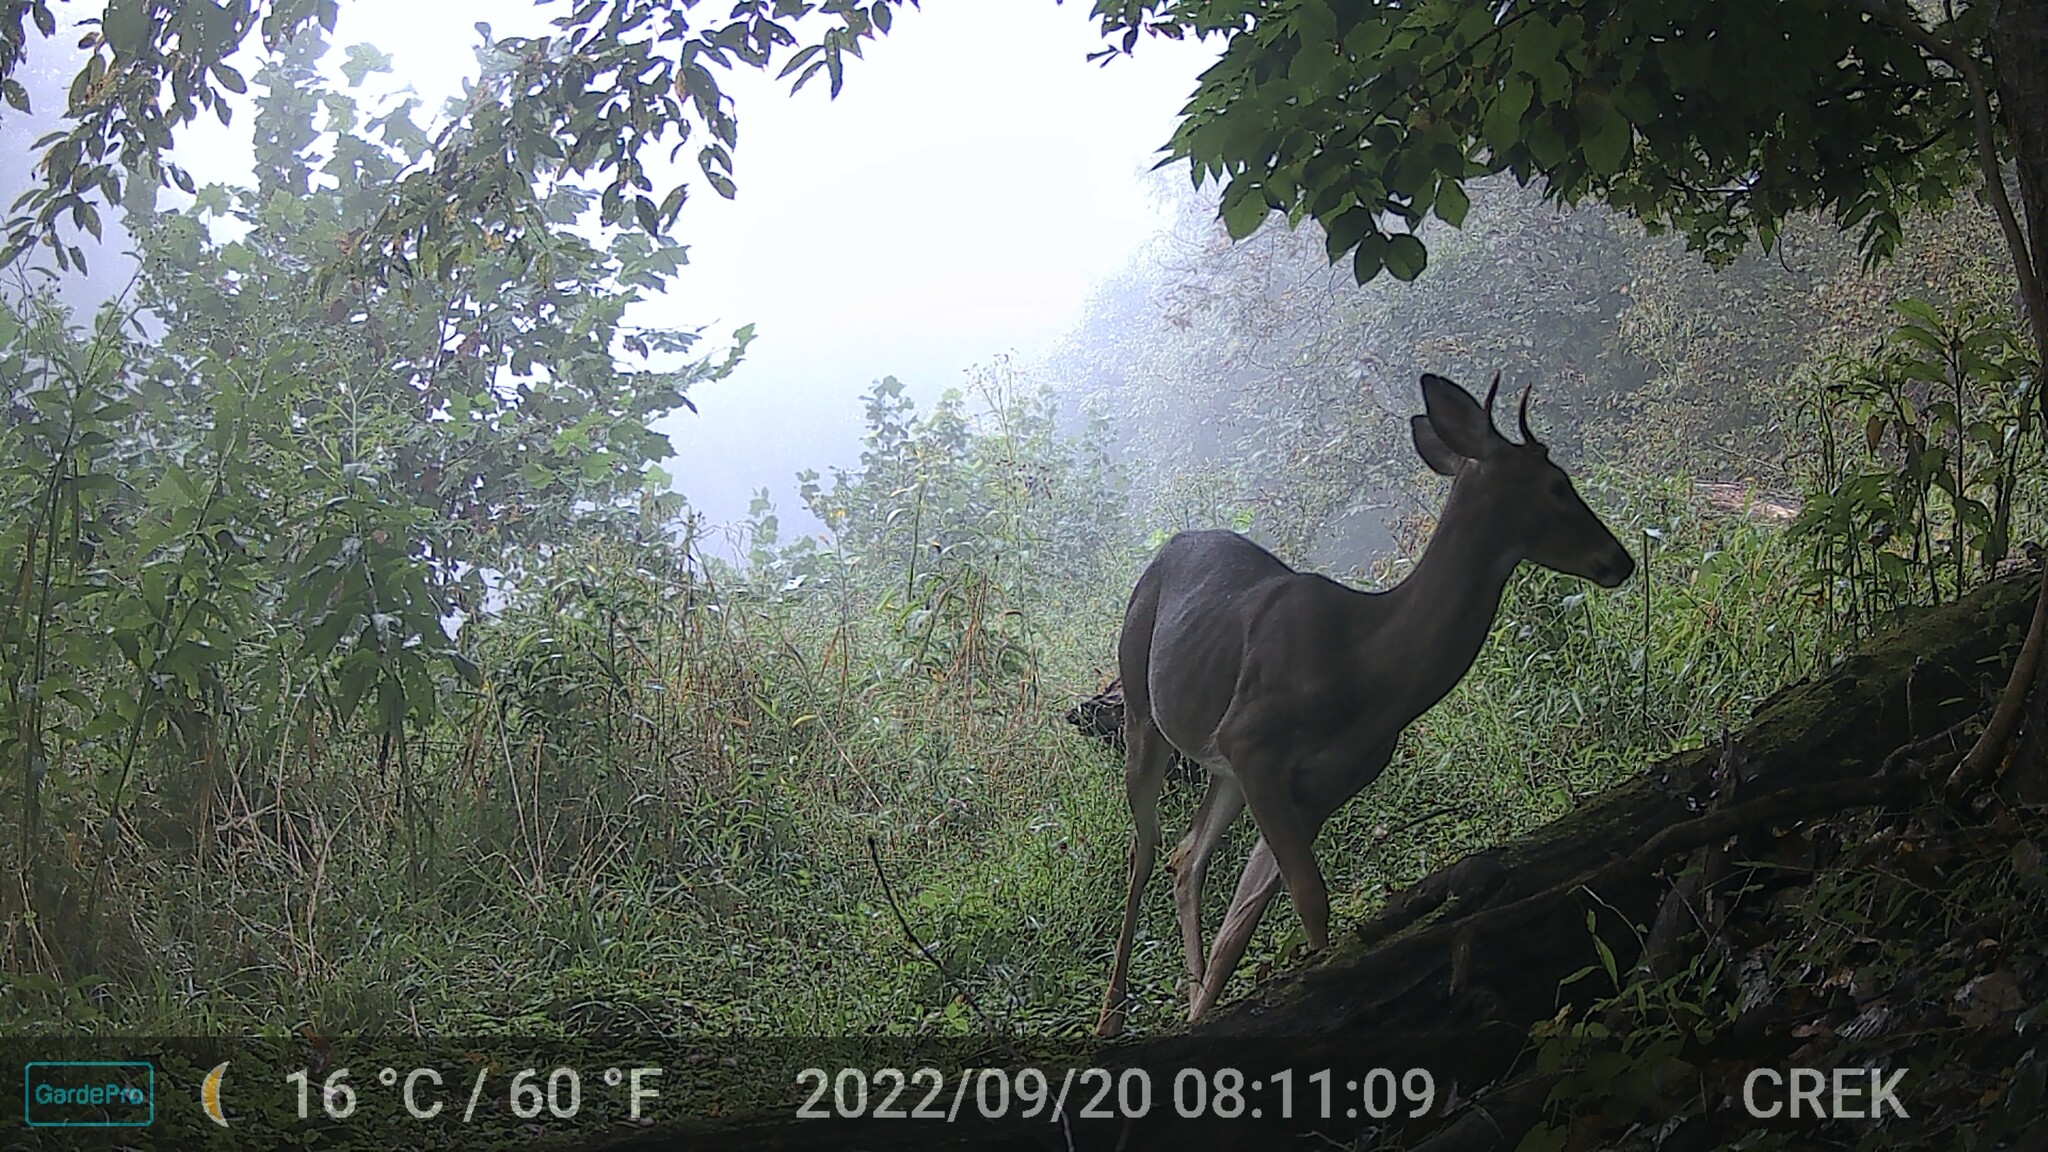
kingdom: Animalia
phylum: Chordata
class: Mammalia
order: Artiodactyla
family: Cervidae
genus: Odocoileus
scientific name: Odocoileus virginianus
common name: White-tailed deer
